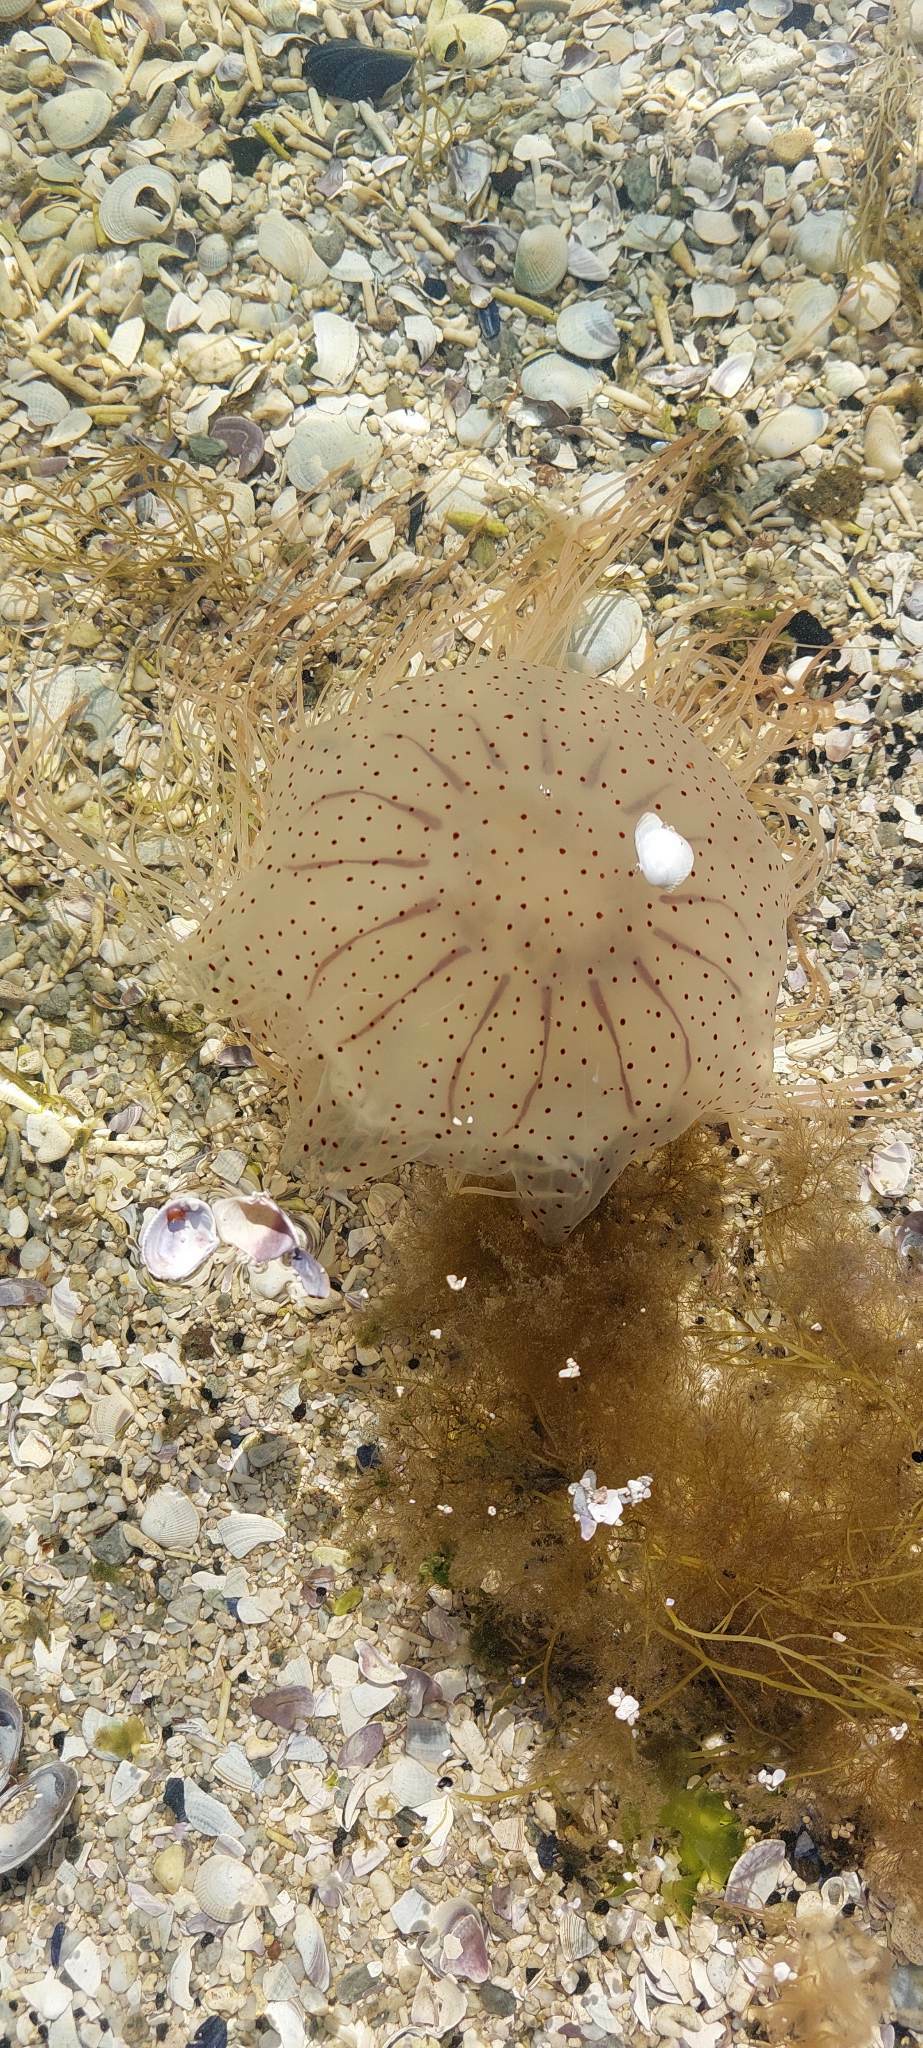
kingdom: Animalia
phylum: Cnidaria
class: Scyphozoa
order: Semaeostomeae
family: Cyaneidae
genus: Desmonema
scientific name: Desmonema gaudichaudi
